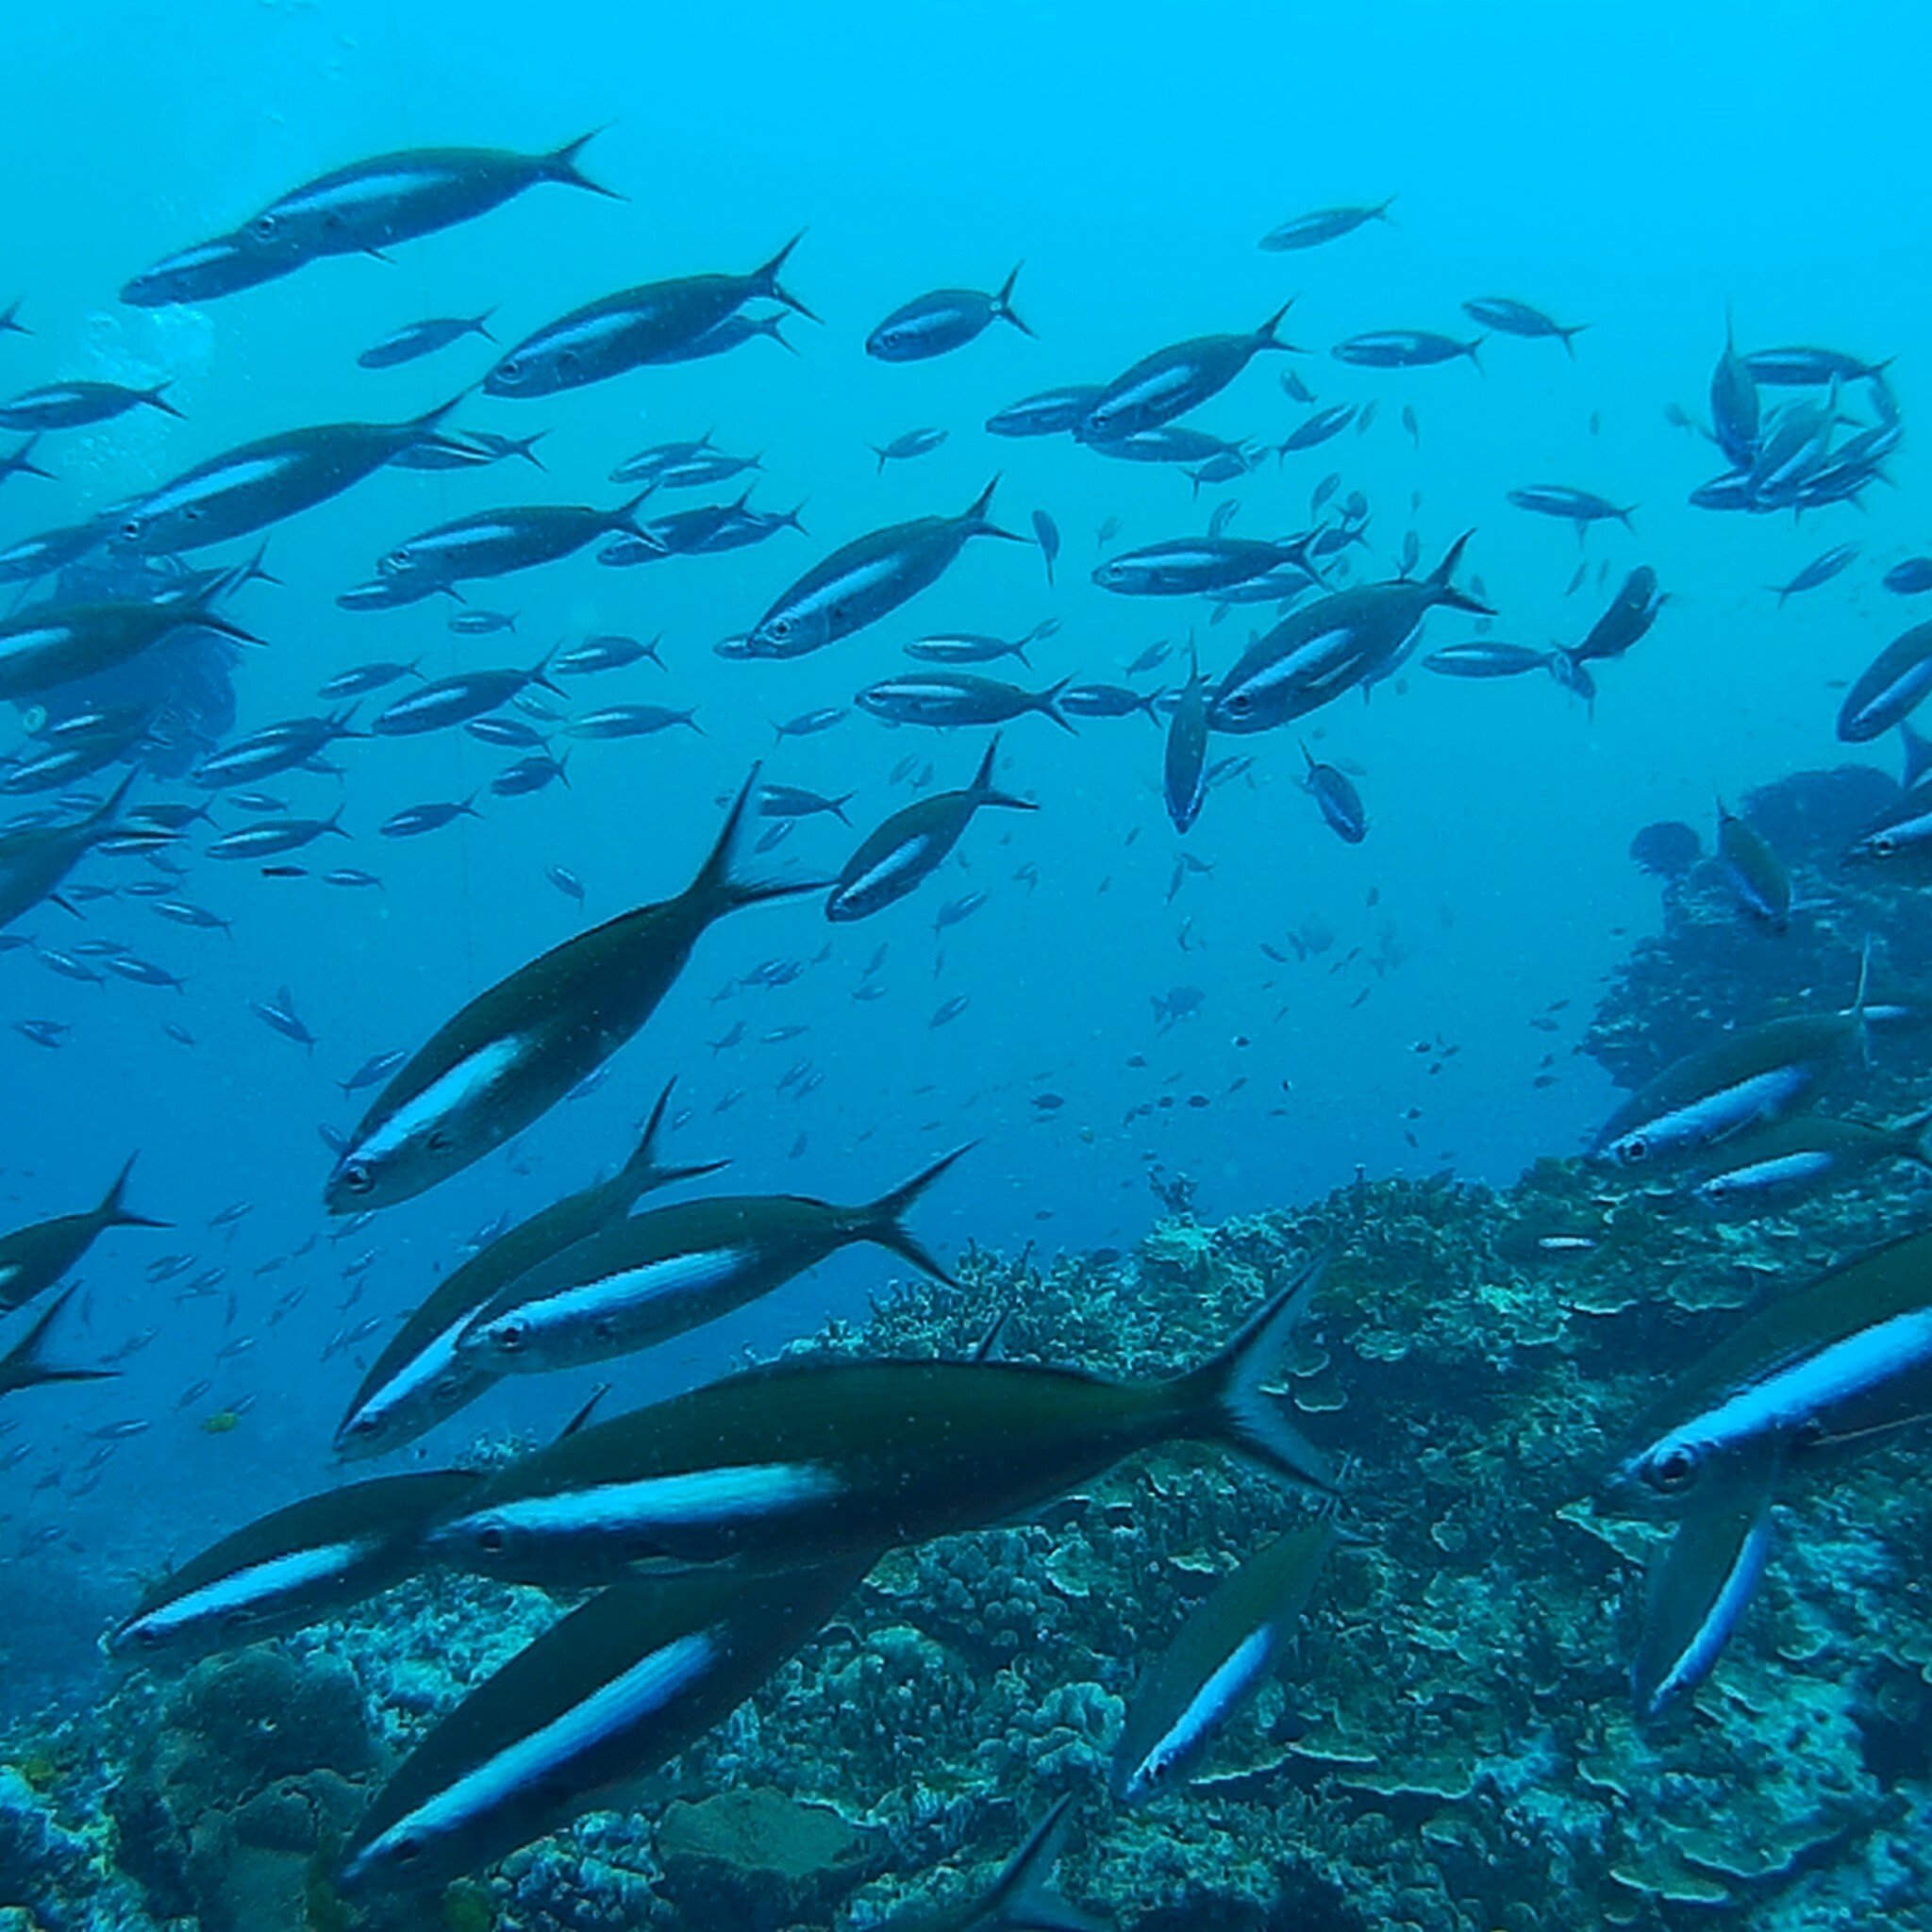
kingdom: Animalia
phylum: Chordata
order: Perciformes
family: Caesionidae
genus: Pterocaesio
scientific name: Pterocaesio tile
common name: Dark-banded fusilier
